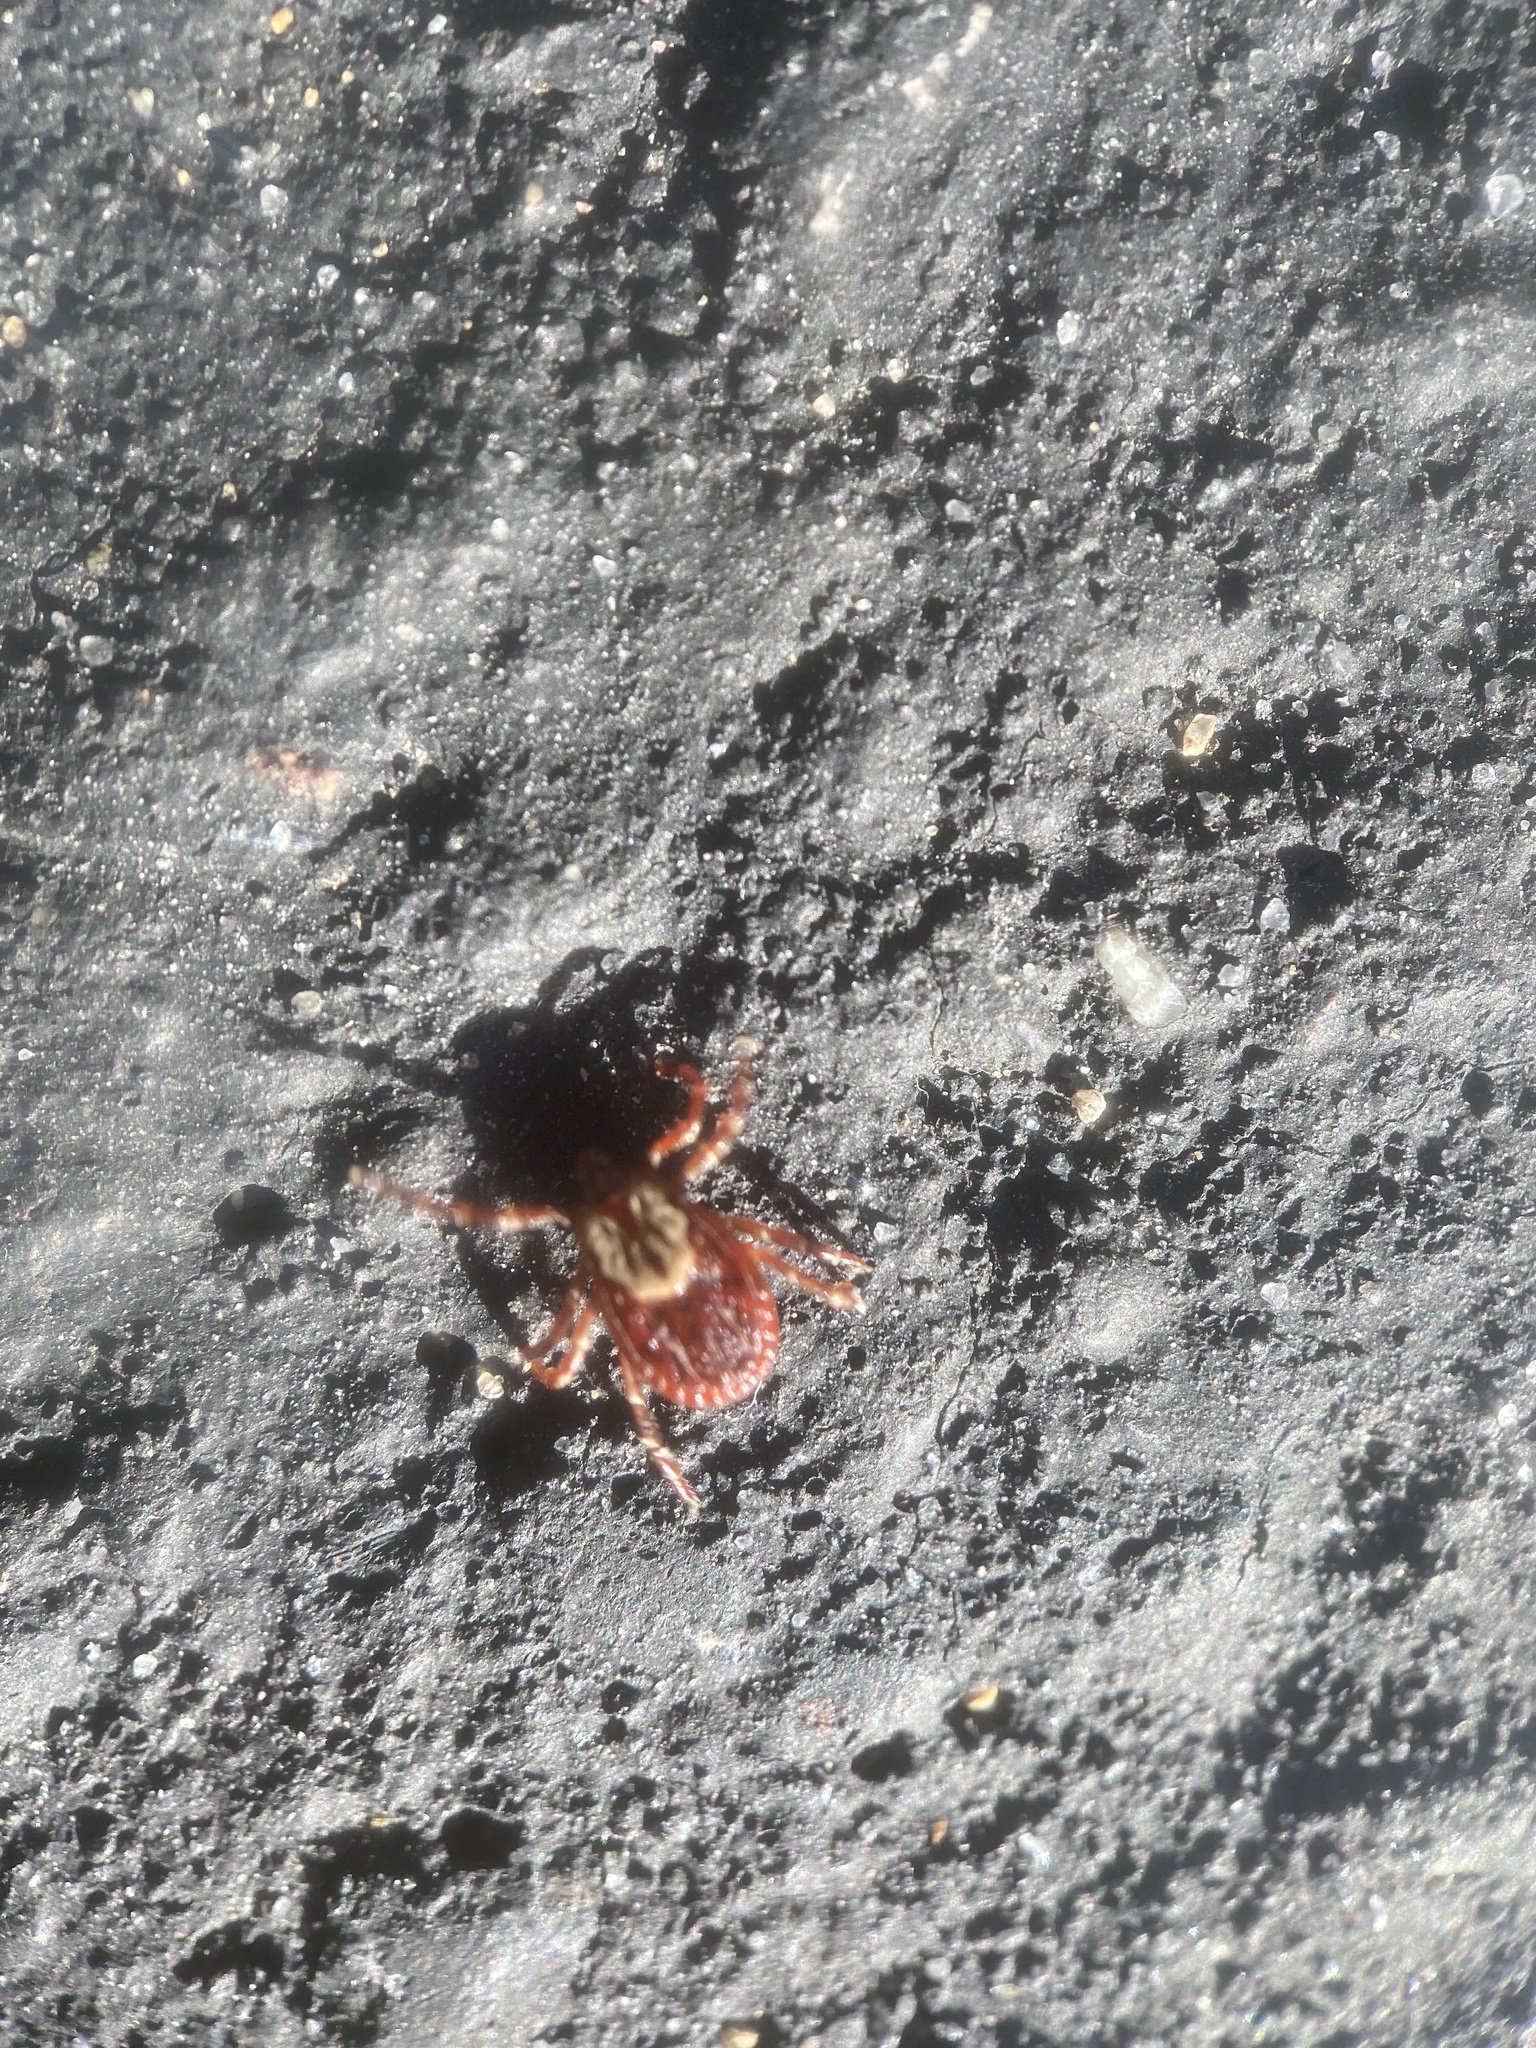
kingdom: Animalia
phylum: Arthropoda
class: Arachnida
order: Ixodida
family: Ixodidae
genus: Dermacentor
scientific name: Dermacentor variabilis
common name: American dog tick
